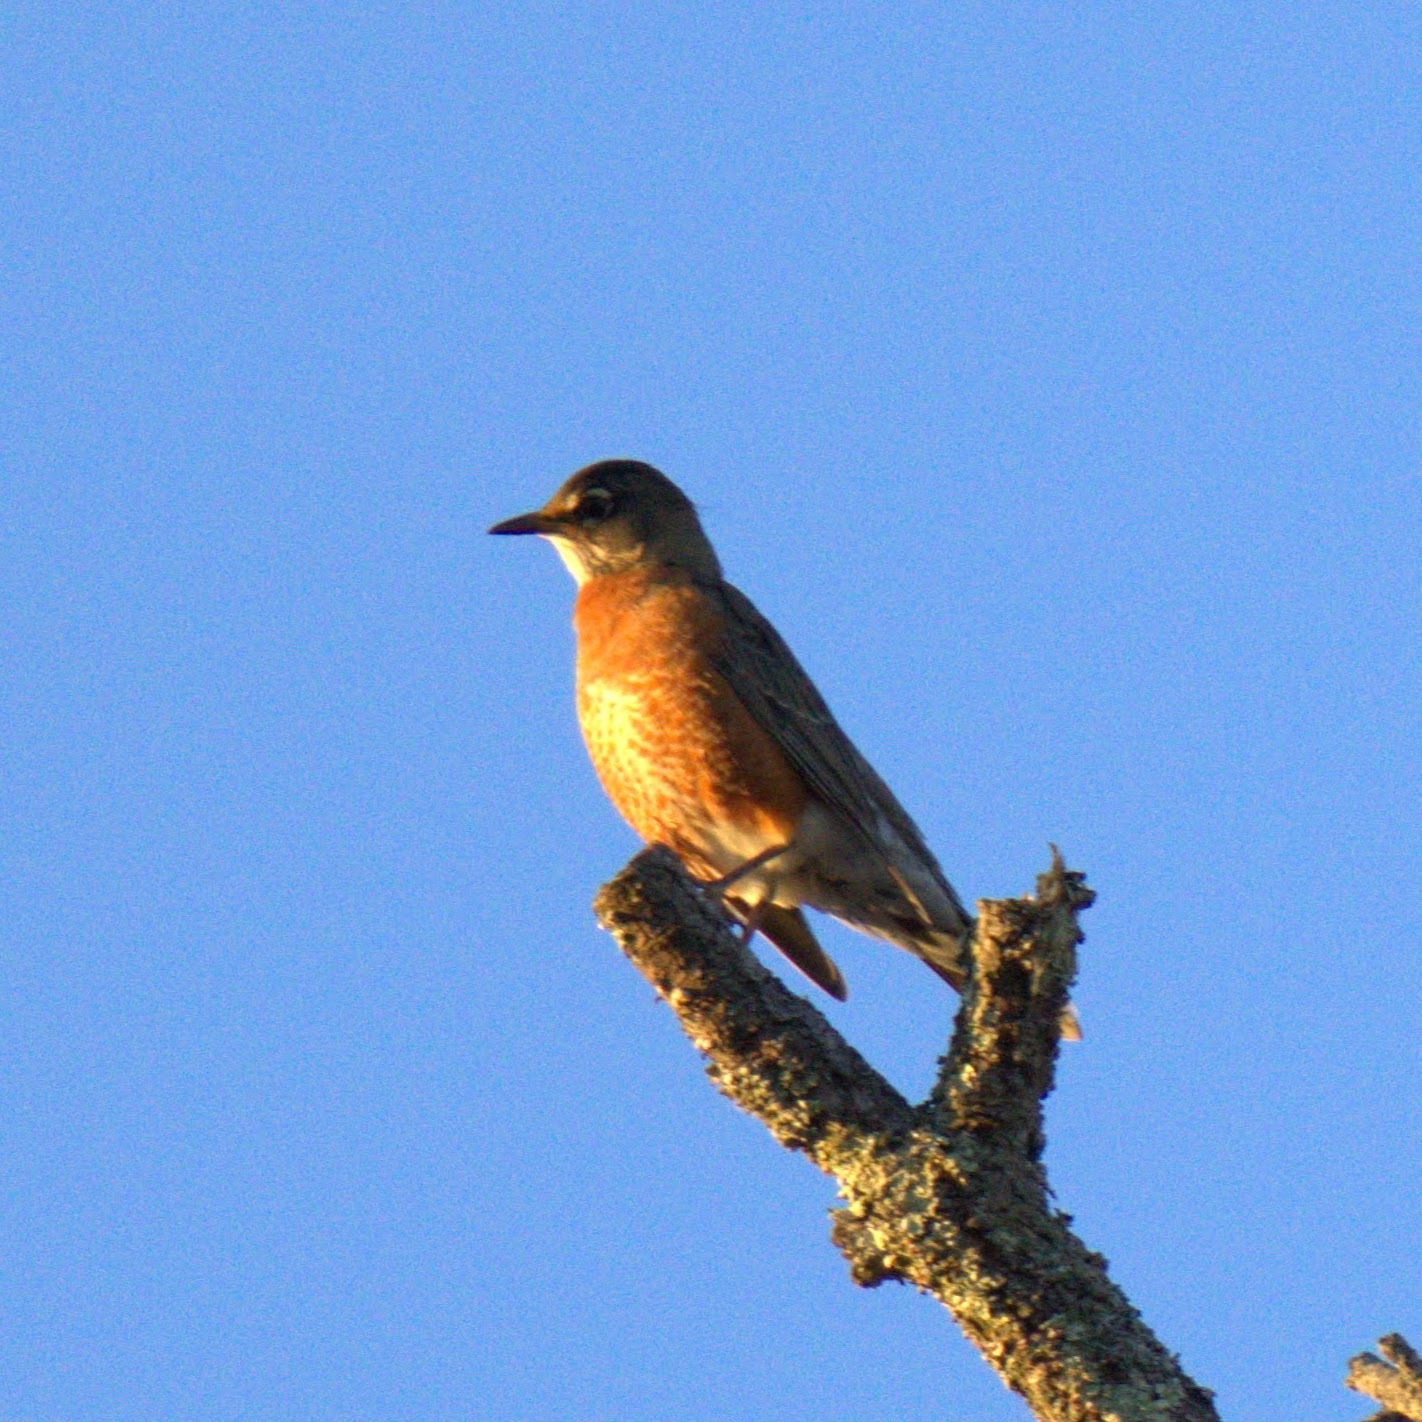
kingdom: Animalia
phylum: Chordata
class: Aves
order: Passeriformes
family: Turdidae
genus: Turdus
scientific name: Turdus migratorius
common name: American robin
